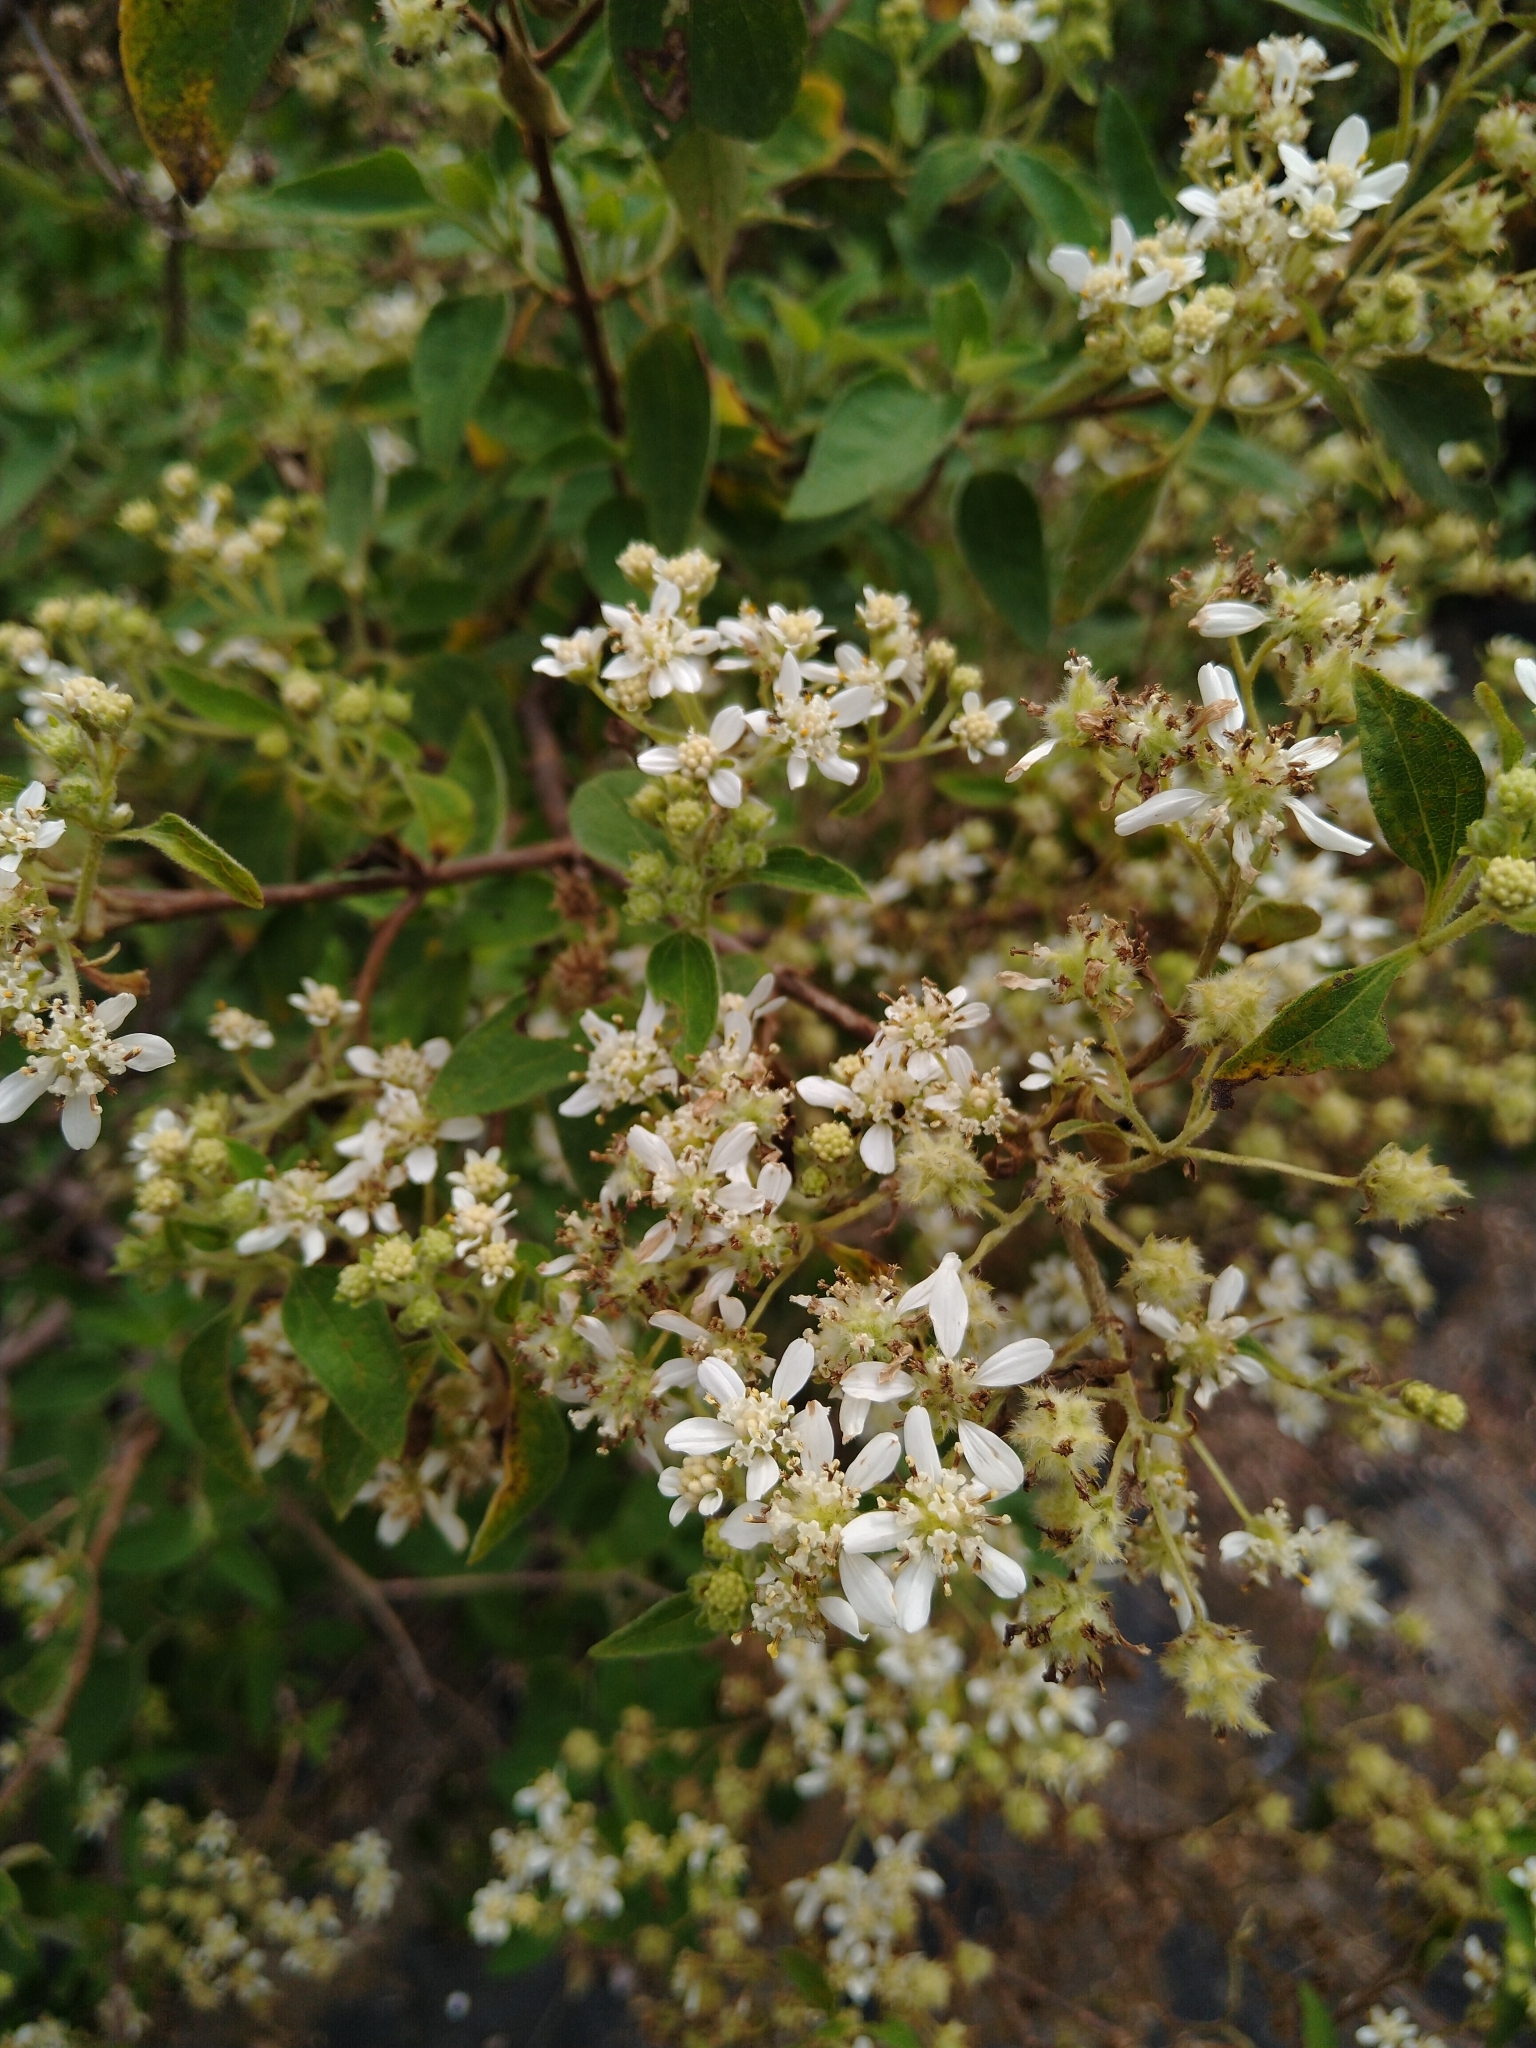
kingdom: Plantae
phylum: Tracheophyta
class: Magnoliopsida
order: Asterales
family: Asteraceae
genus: Montanoa
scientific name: Montanoa tomentosa
